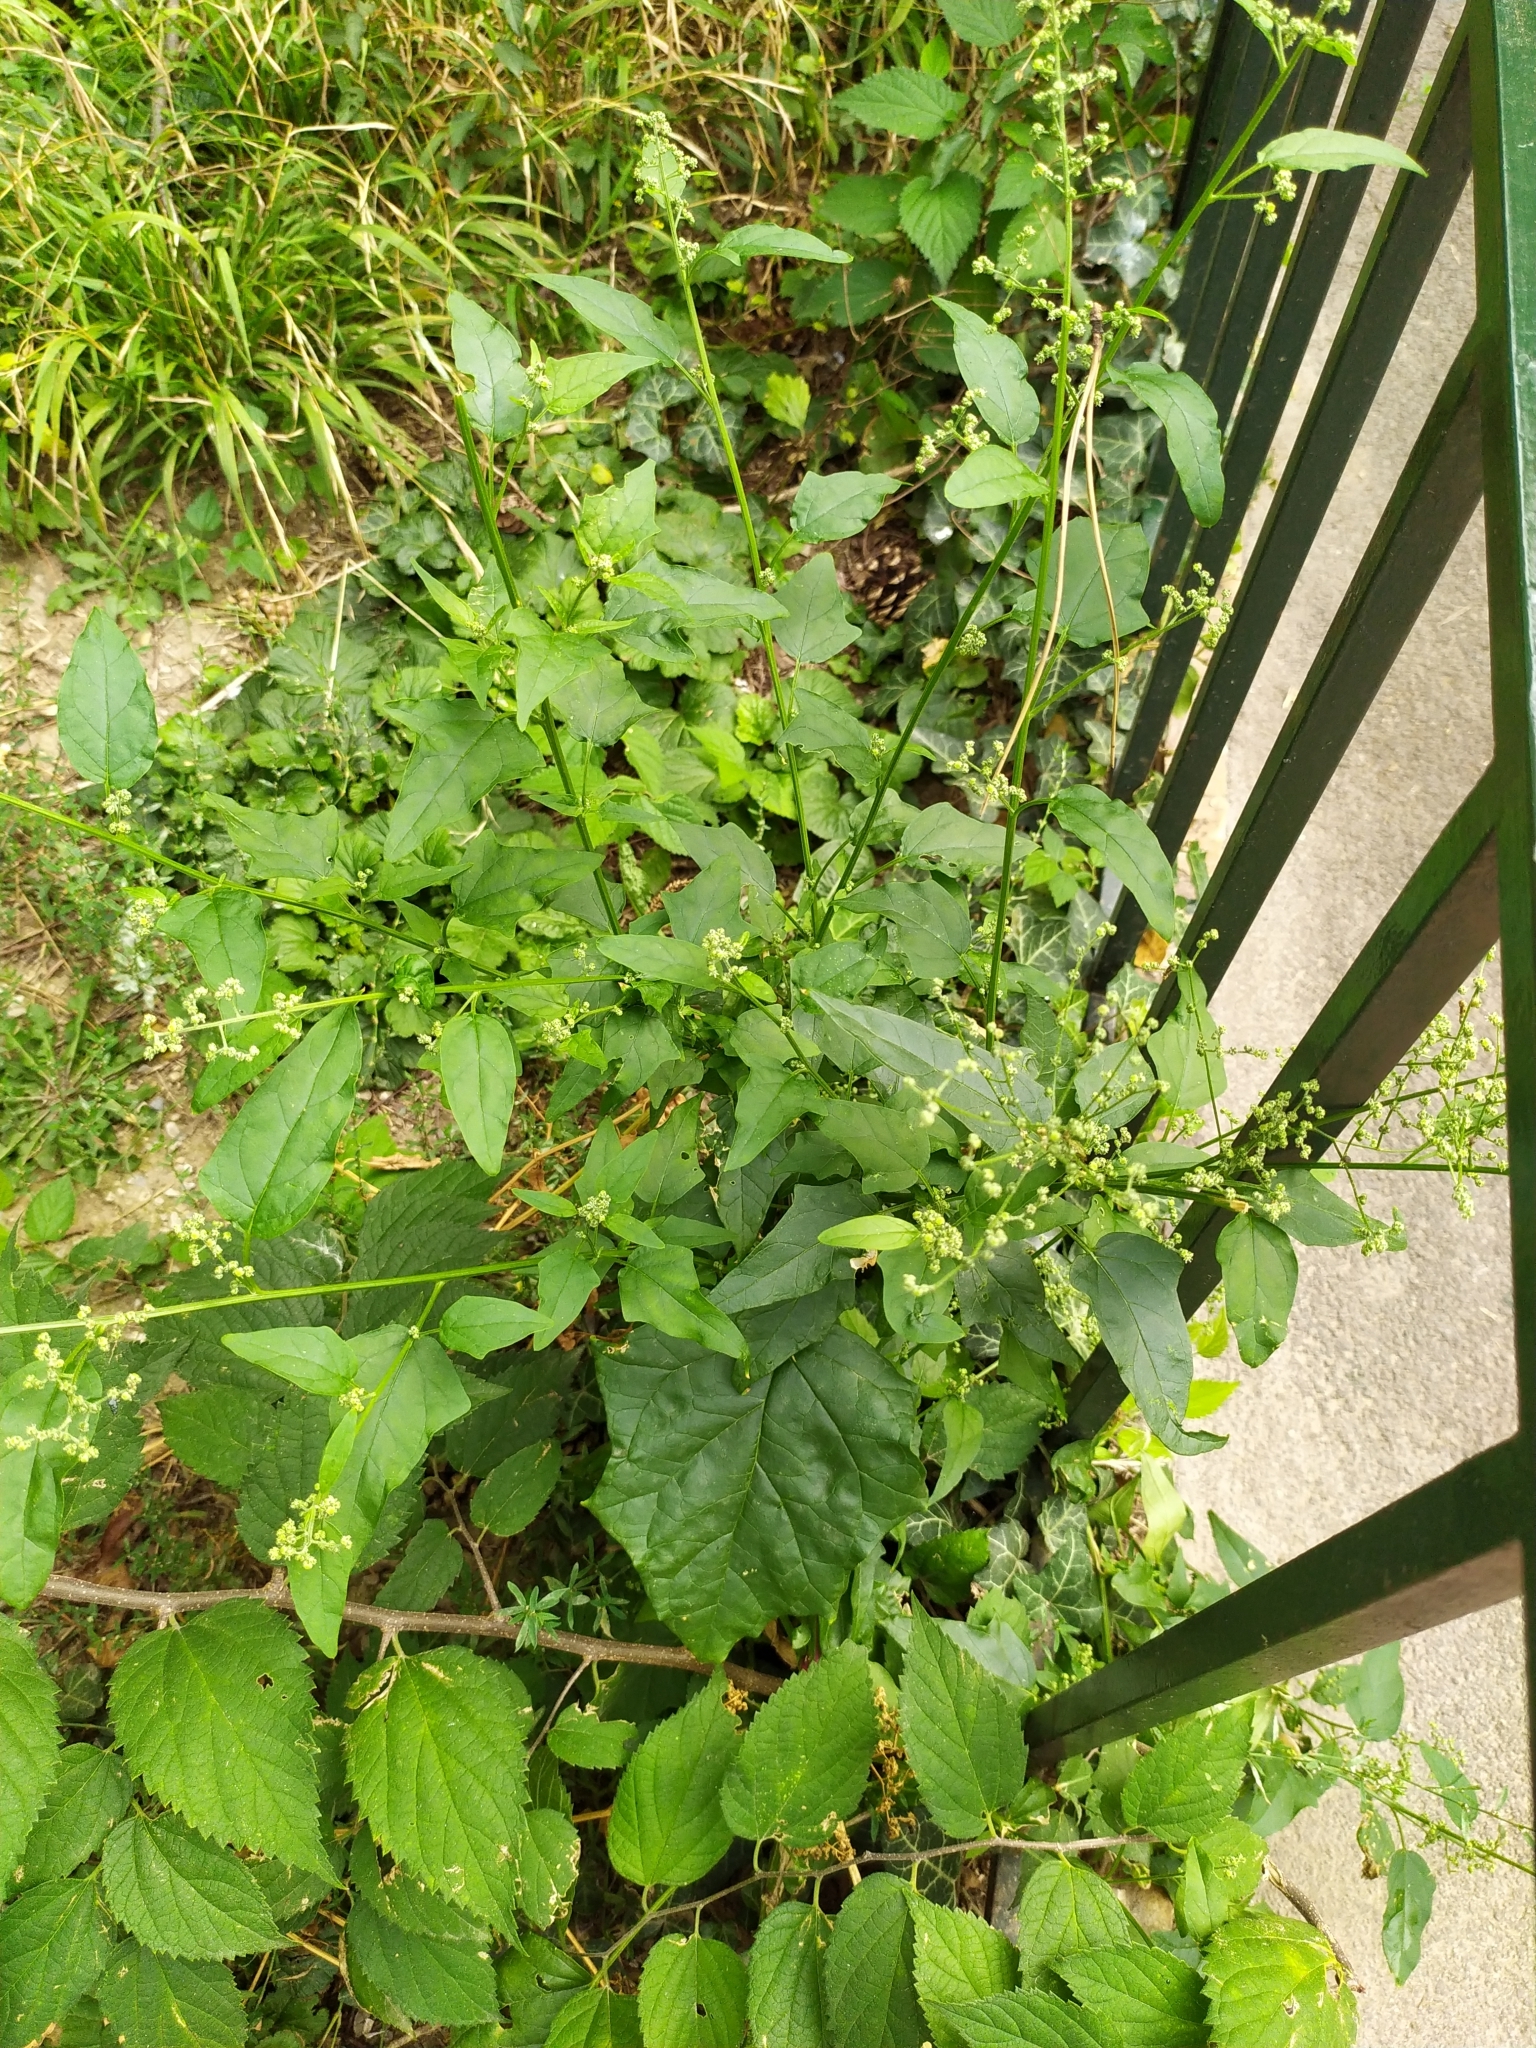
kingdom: Plantae
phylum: Tracheophyta
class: Magnoliopsida
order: Caryophyllales
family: Amaranthaceae
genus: Chenopodiastrum
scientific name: Chenopodiastrum hybridum
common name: Mapleleaf goosefoot
